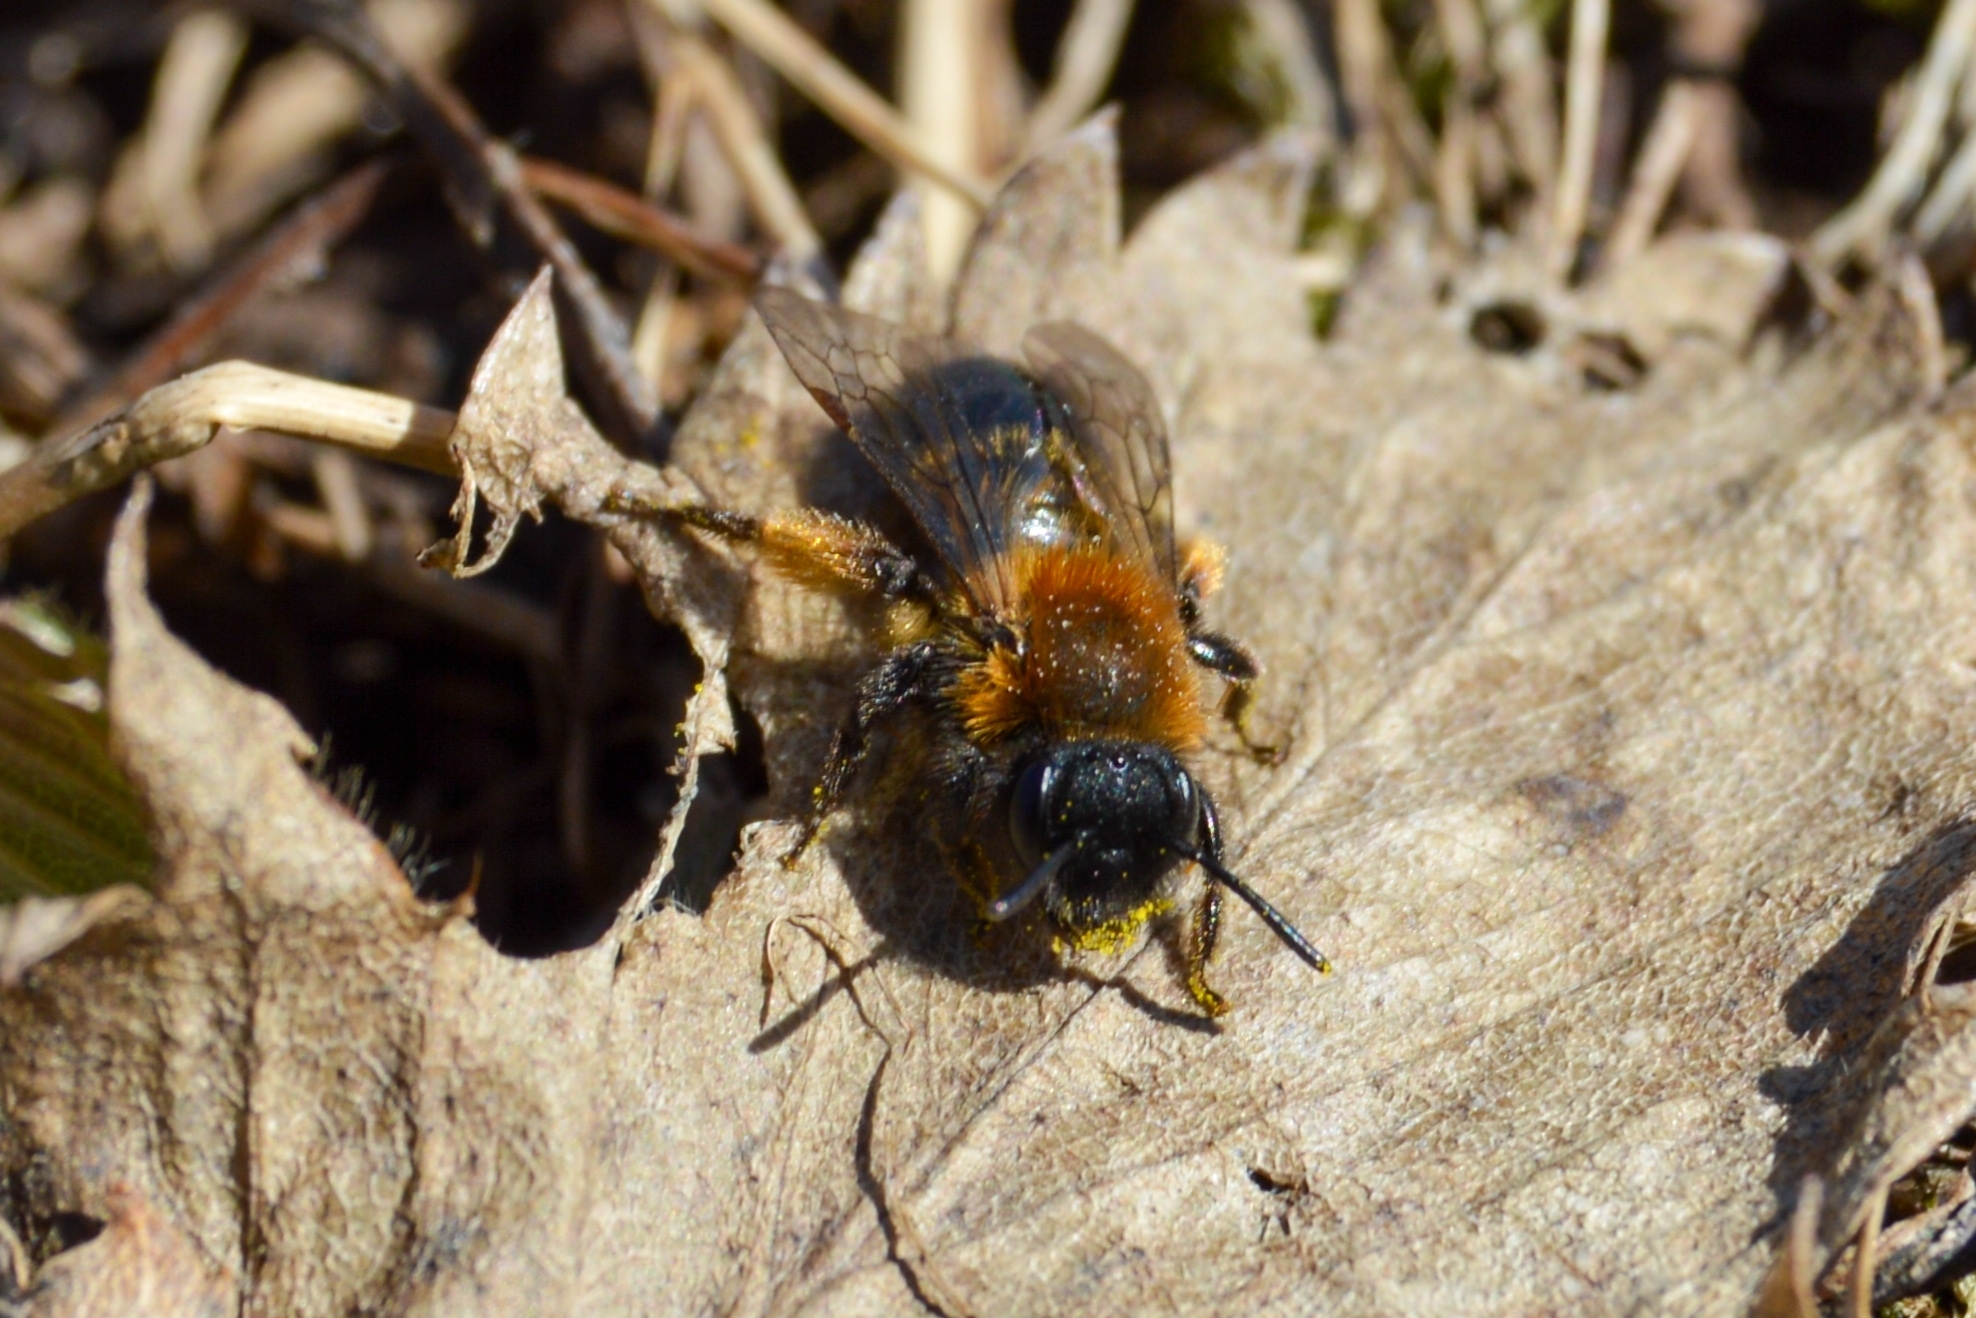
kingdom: Animalia
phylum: Arthropoda
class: Insecta
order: Hymenoptera
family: Andrenidae
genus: Andrena
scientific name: Andrena bicolor
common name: Gwynne's mining bee
